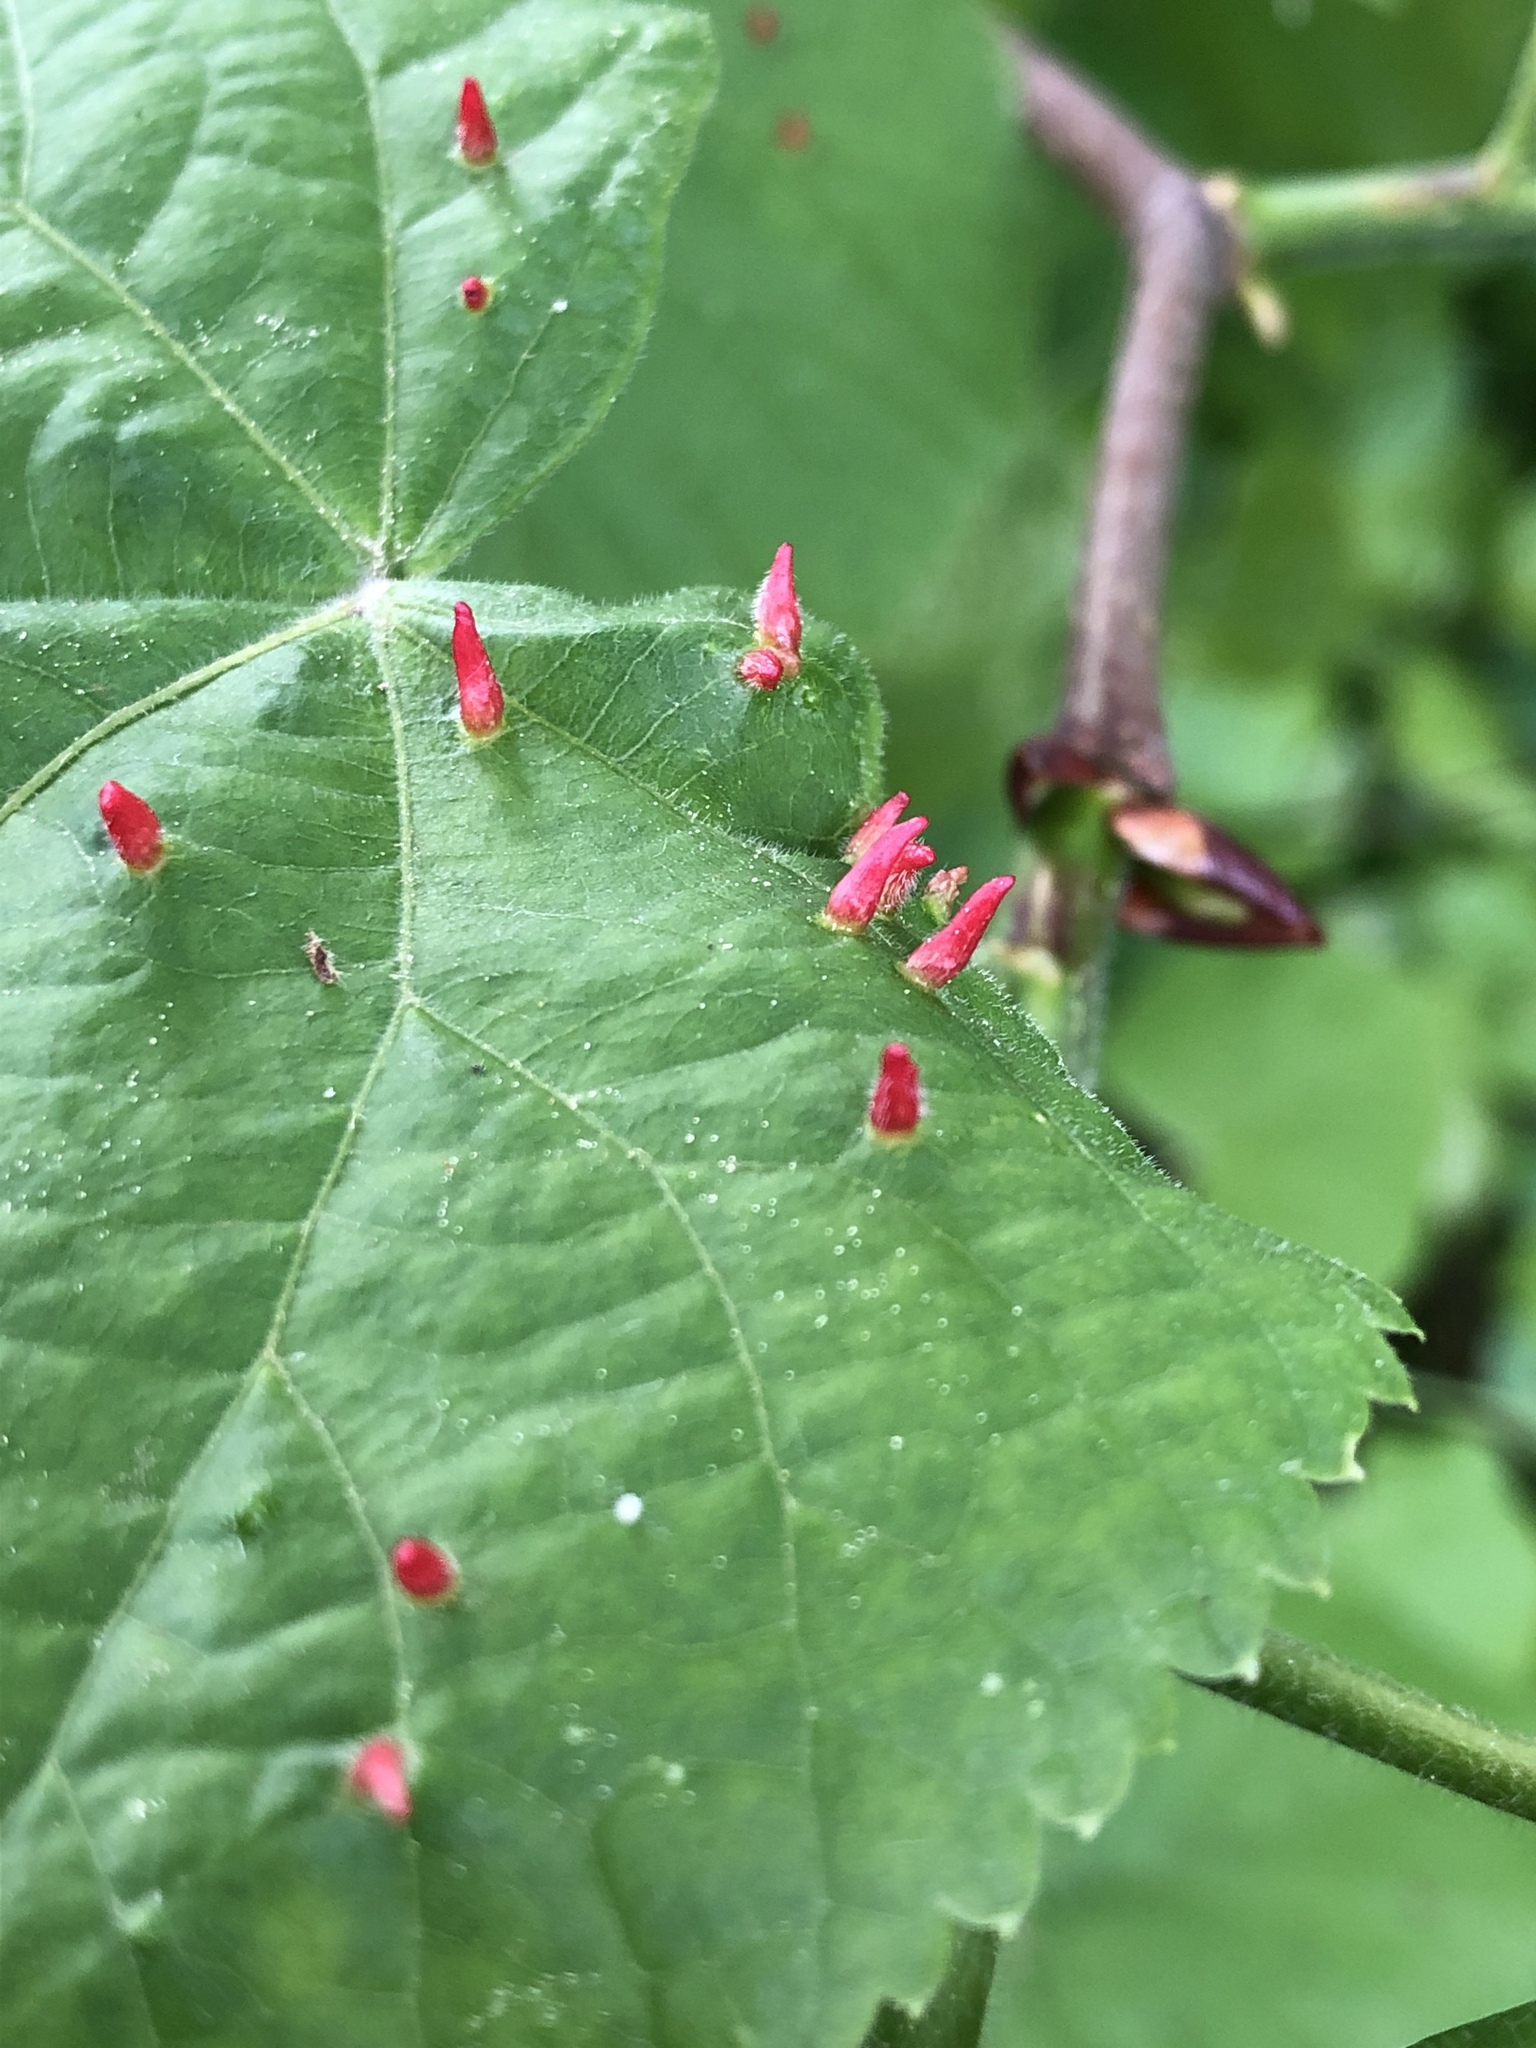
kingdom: Animalia
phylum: Arthropoda
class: Arachnida
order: Trombidiformes
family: Eriophyidae
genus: Eriophyes
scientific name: Eriophyes tiliae
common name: Red nail gall mite
